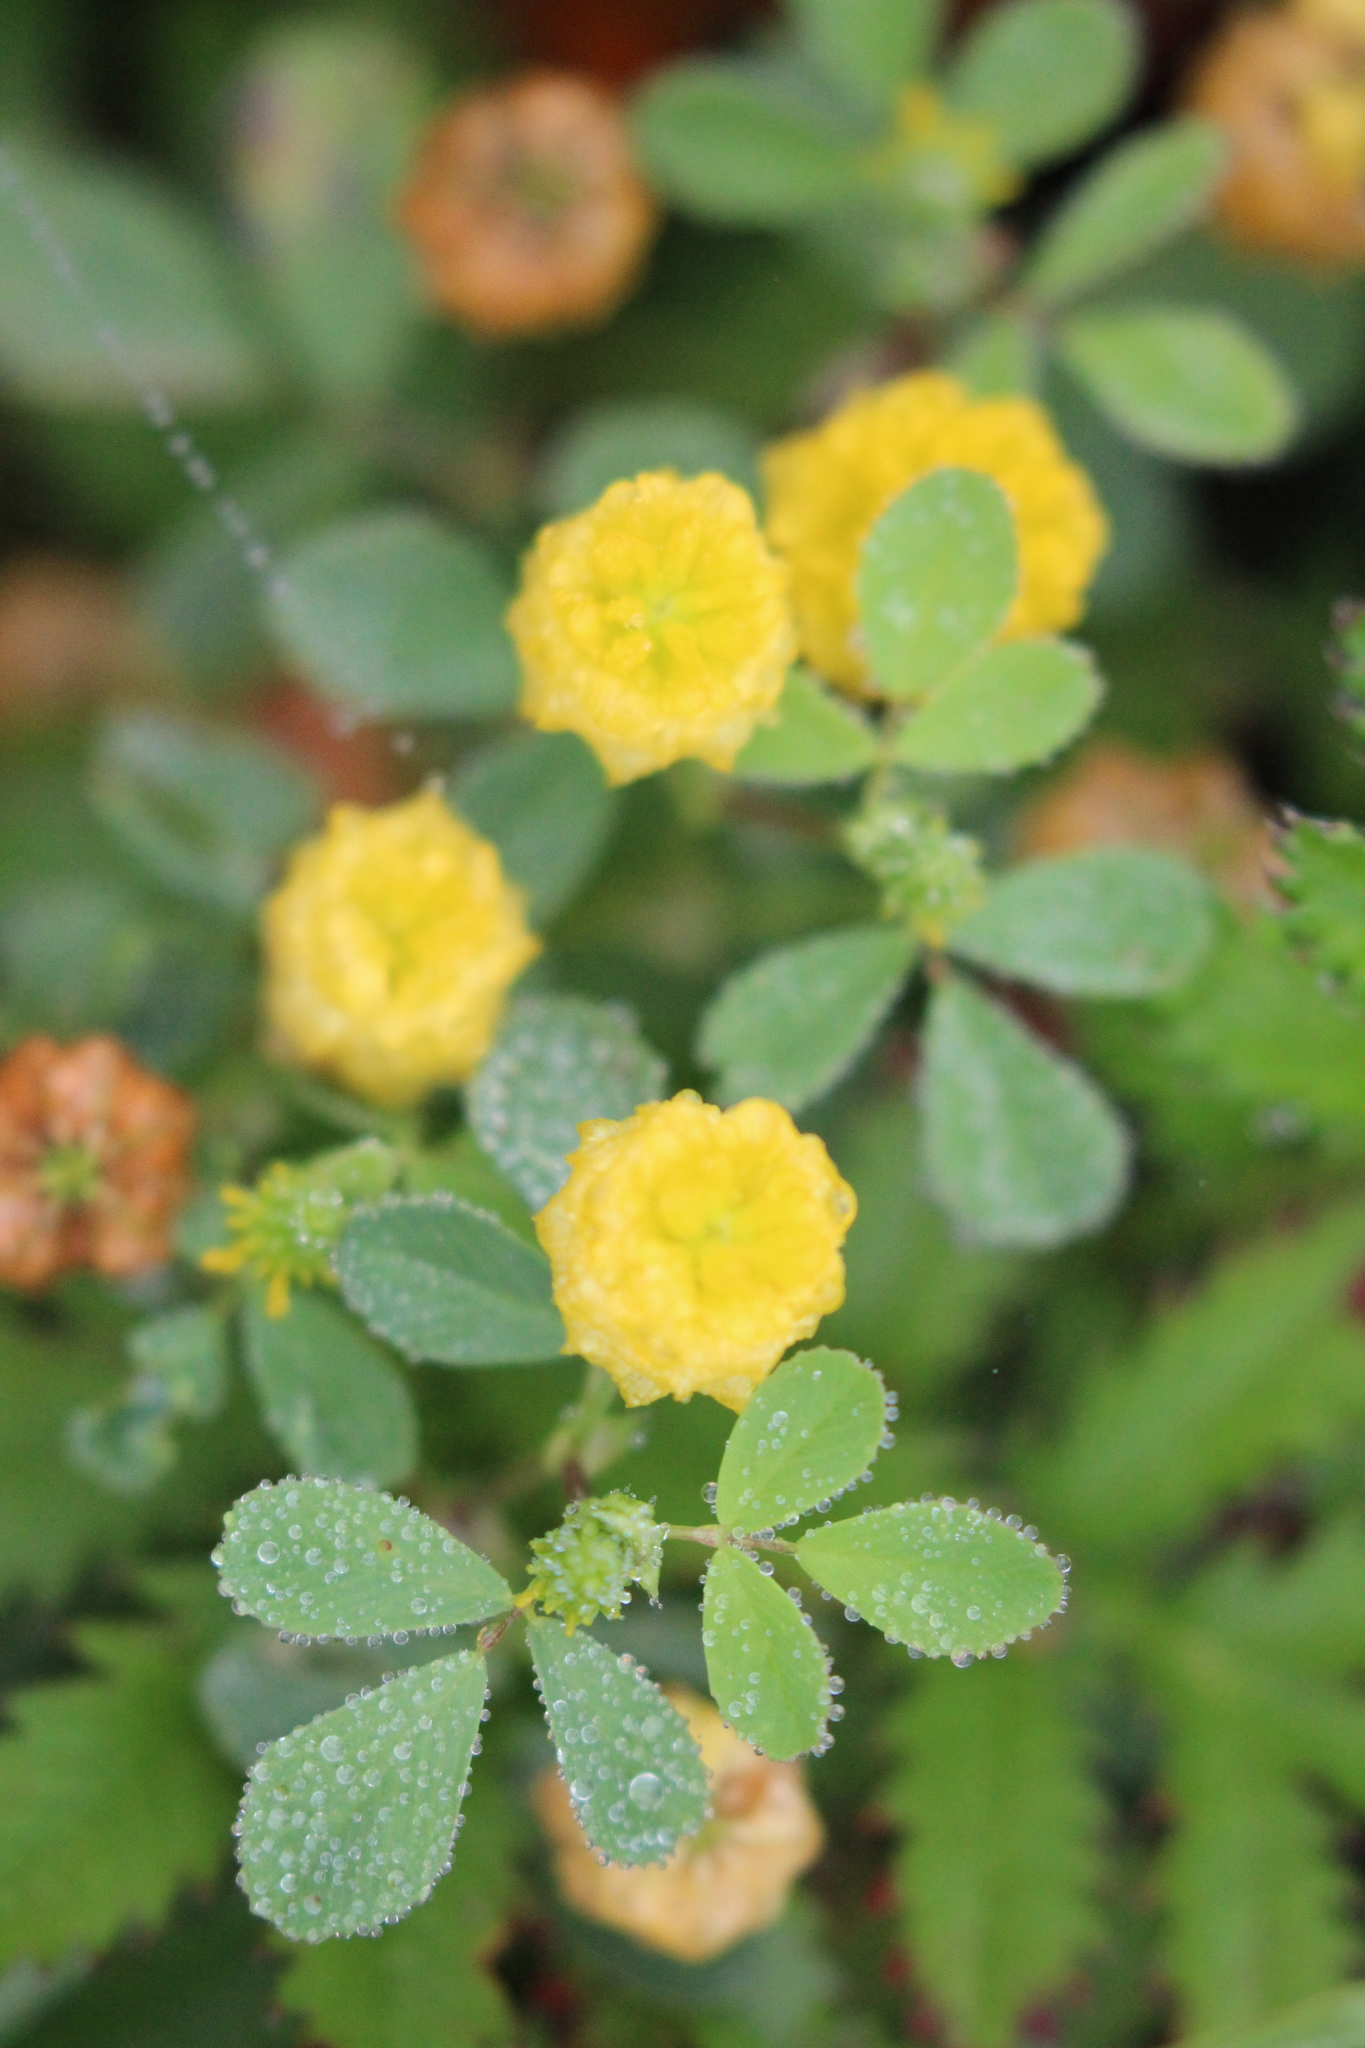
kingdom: Plantae
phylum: Tracheophyta
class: Magnoliopsida
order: Fabales
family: Fabaceae
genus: Trifolium
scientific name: Trifolium campestre
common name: Field clover
